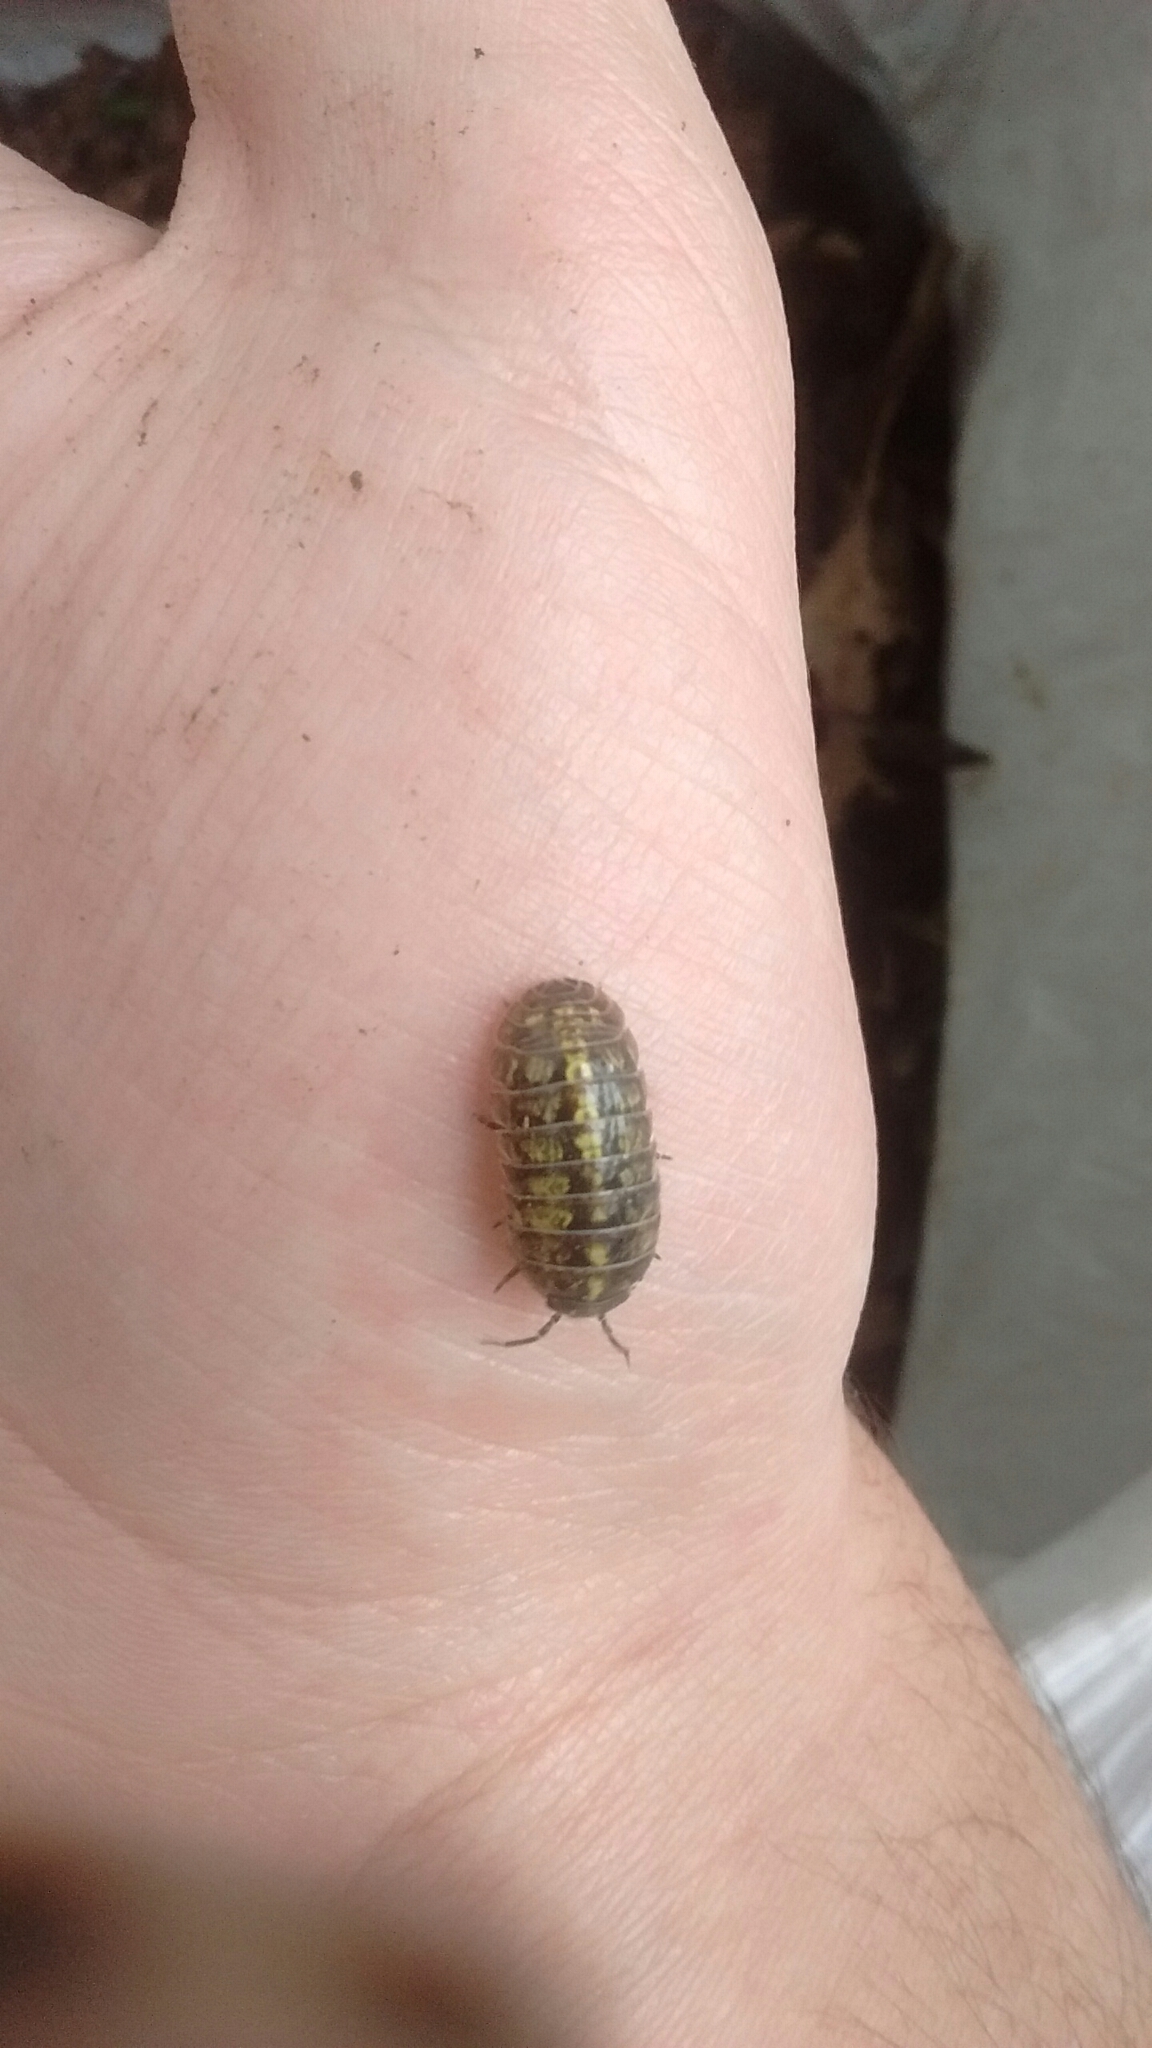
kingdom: Animalia
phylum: Arthropoda
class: Malacostraca
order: Isopoda
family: Armadillidiidae
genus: Armadillidium
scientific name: Armadillidium vulgare
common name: Common pill woodlouse
